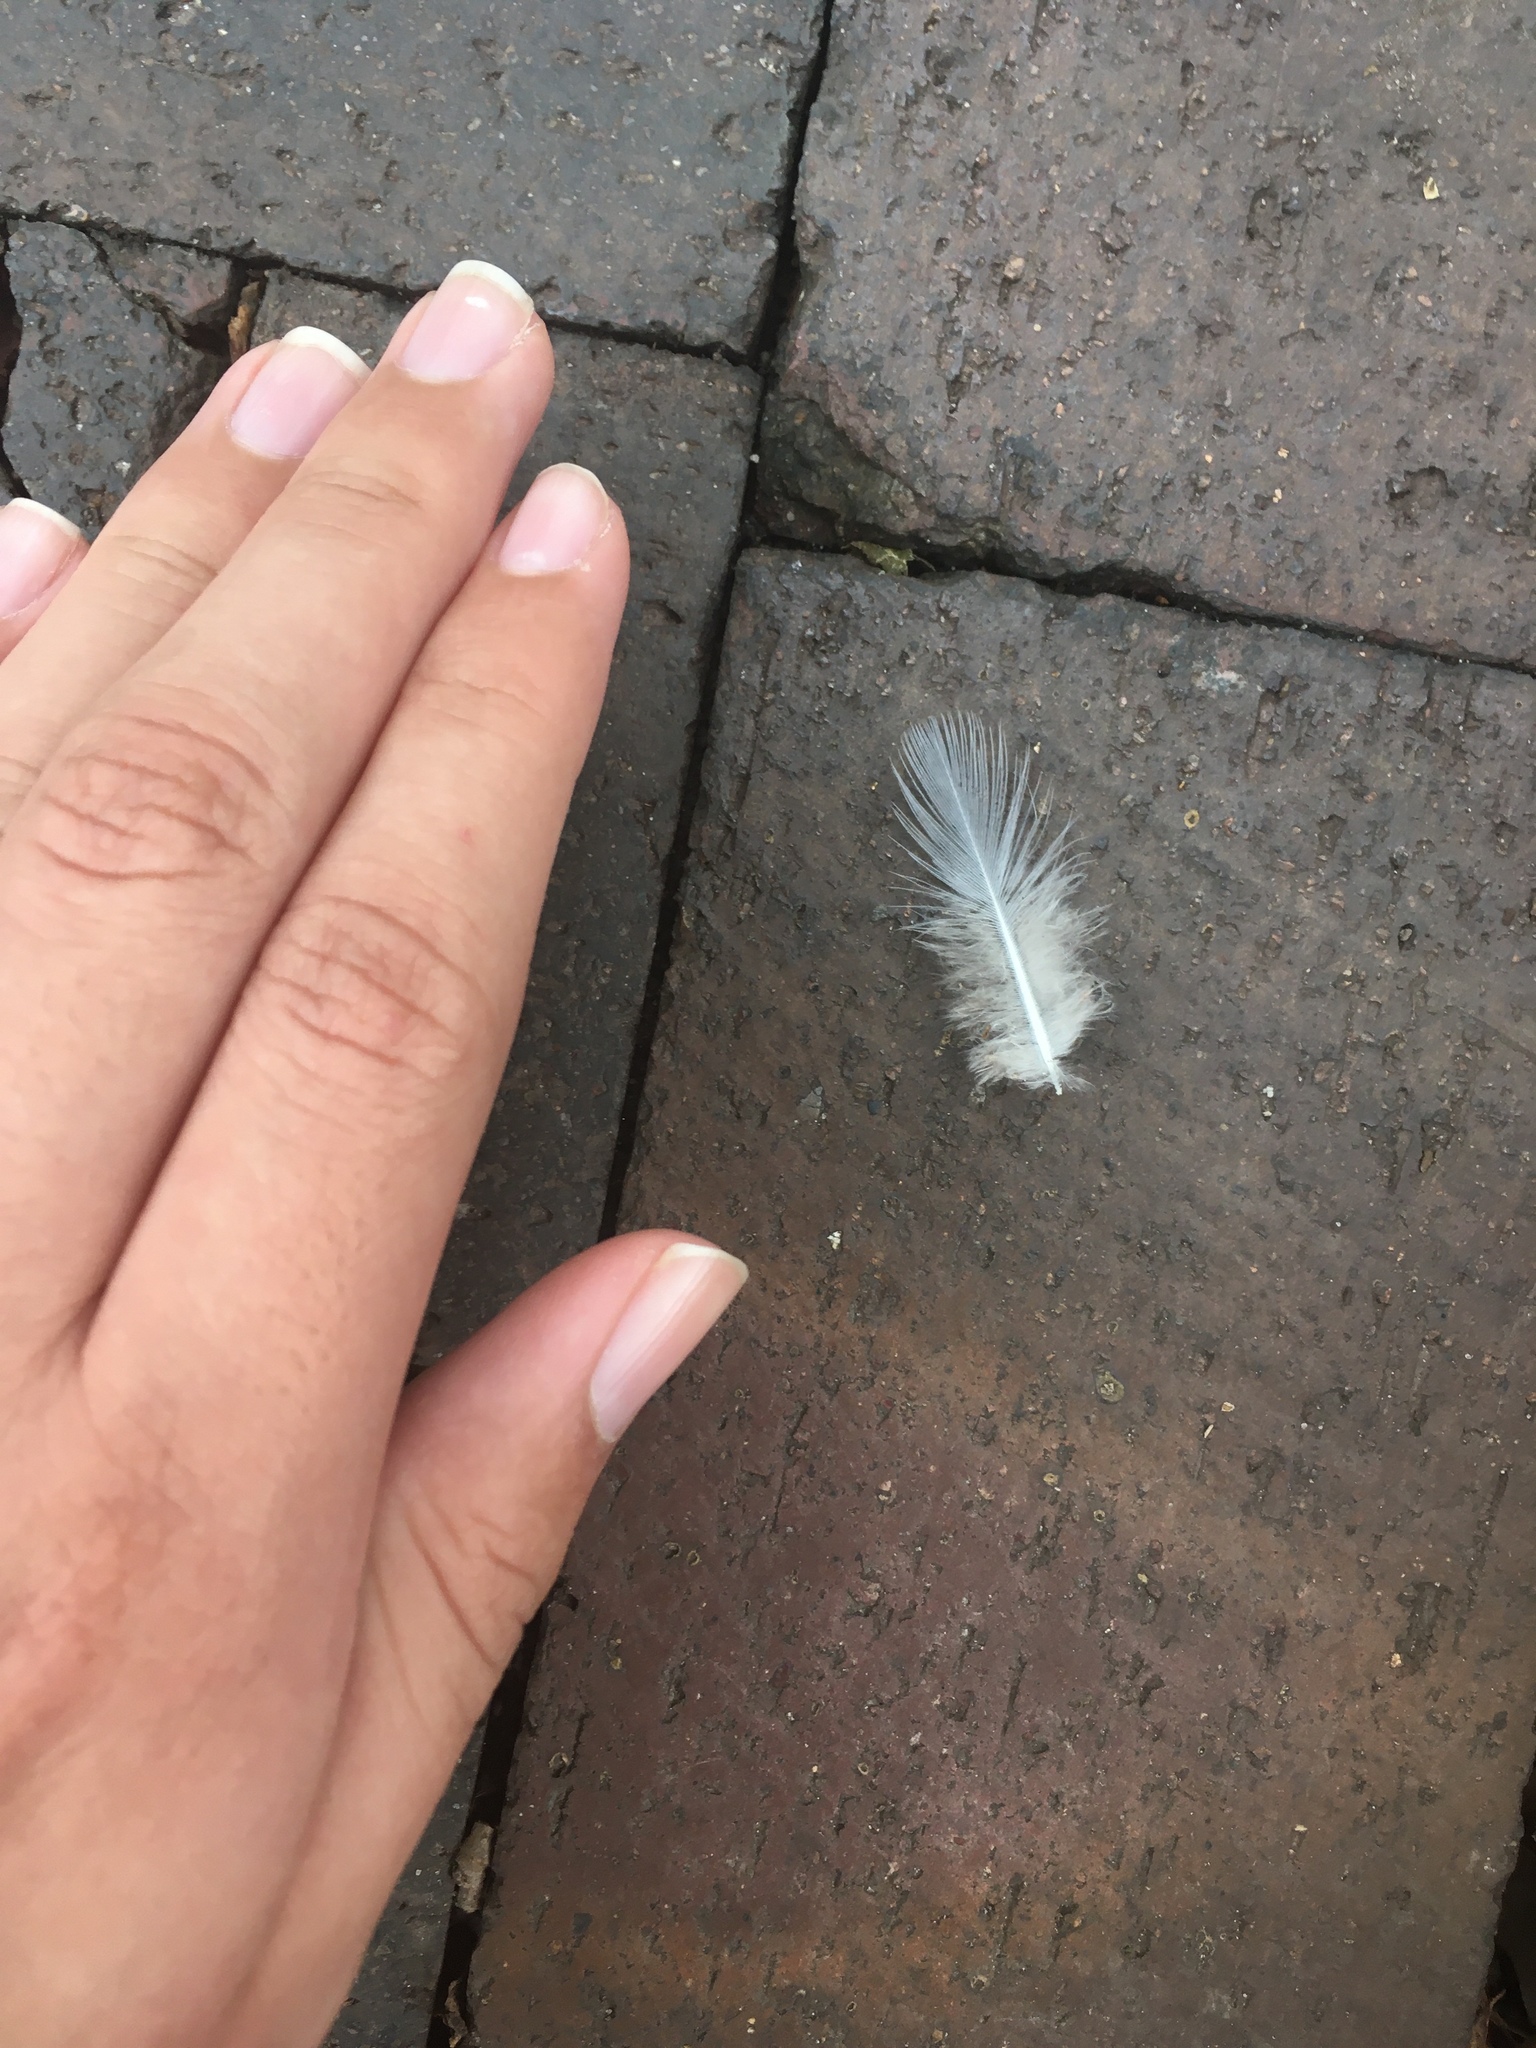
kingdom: Animalia
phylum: Chordata
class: Aves
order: Columbiformes
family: Columbidae
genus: Zenaida
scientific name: Zenaida macroura
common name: Mourning dove
